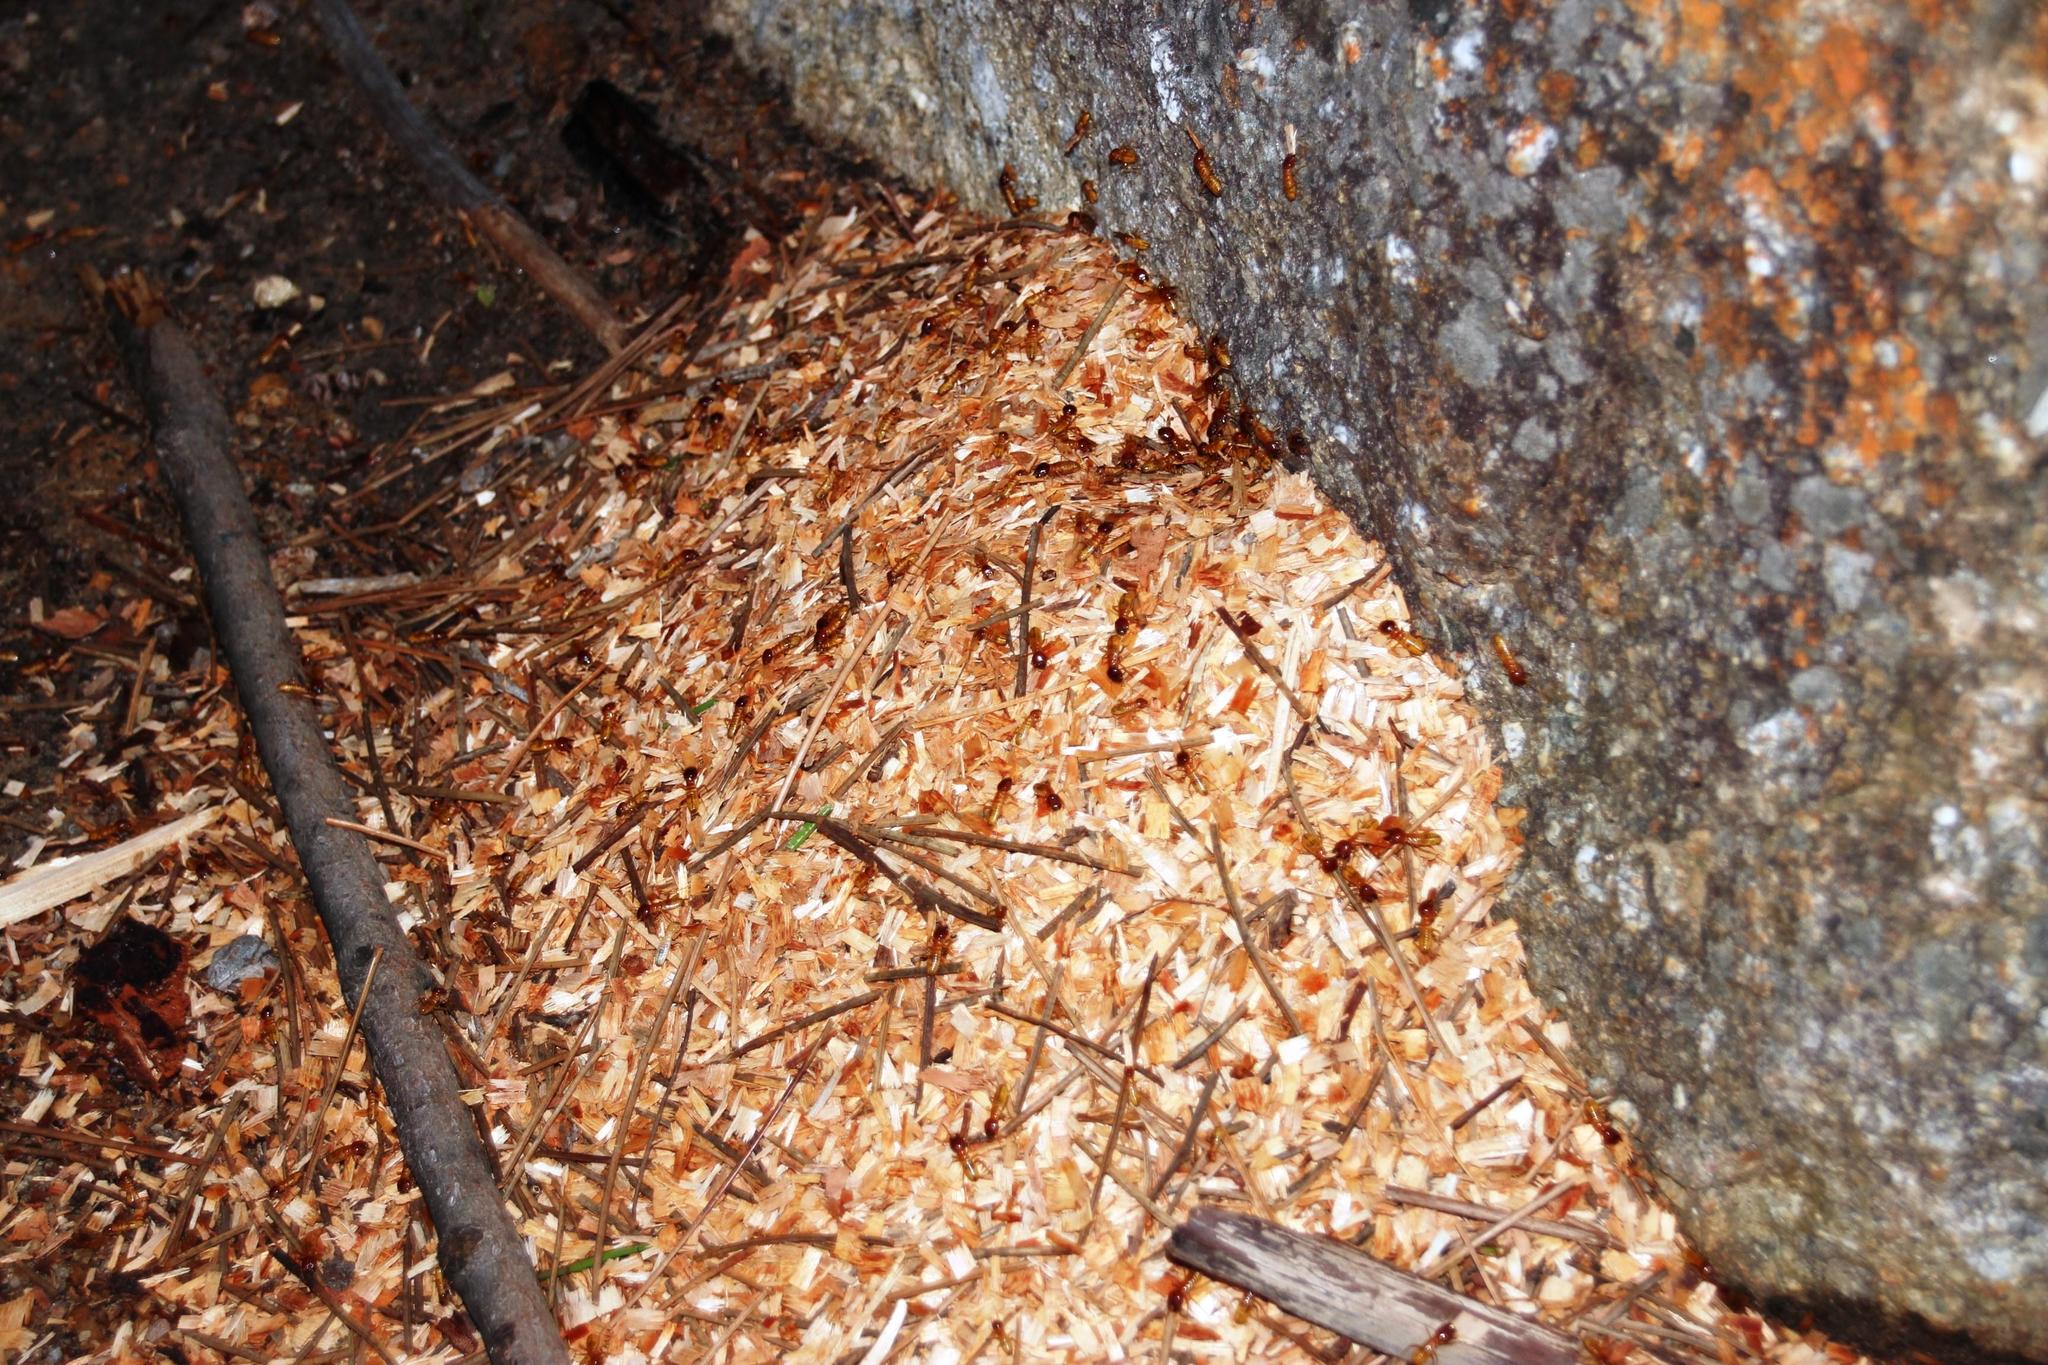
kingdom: Animalia
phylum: Arthropoda
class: Insecta
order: Blattodea
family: Hodotermitidae
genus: Microhodotermes
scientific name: Microhodotermes viator
